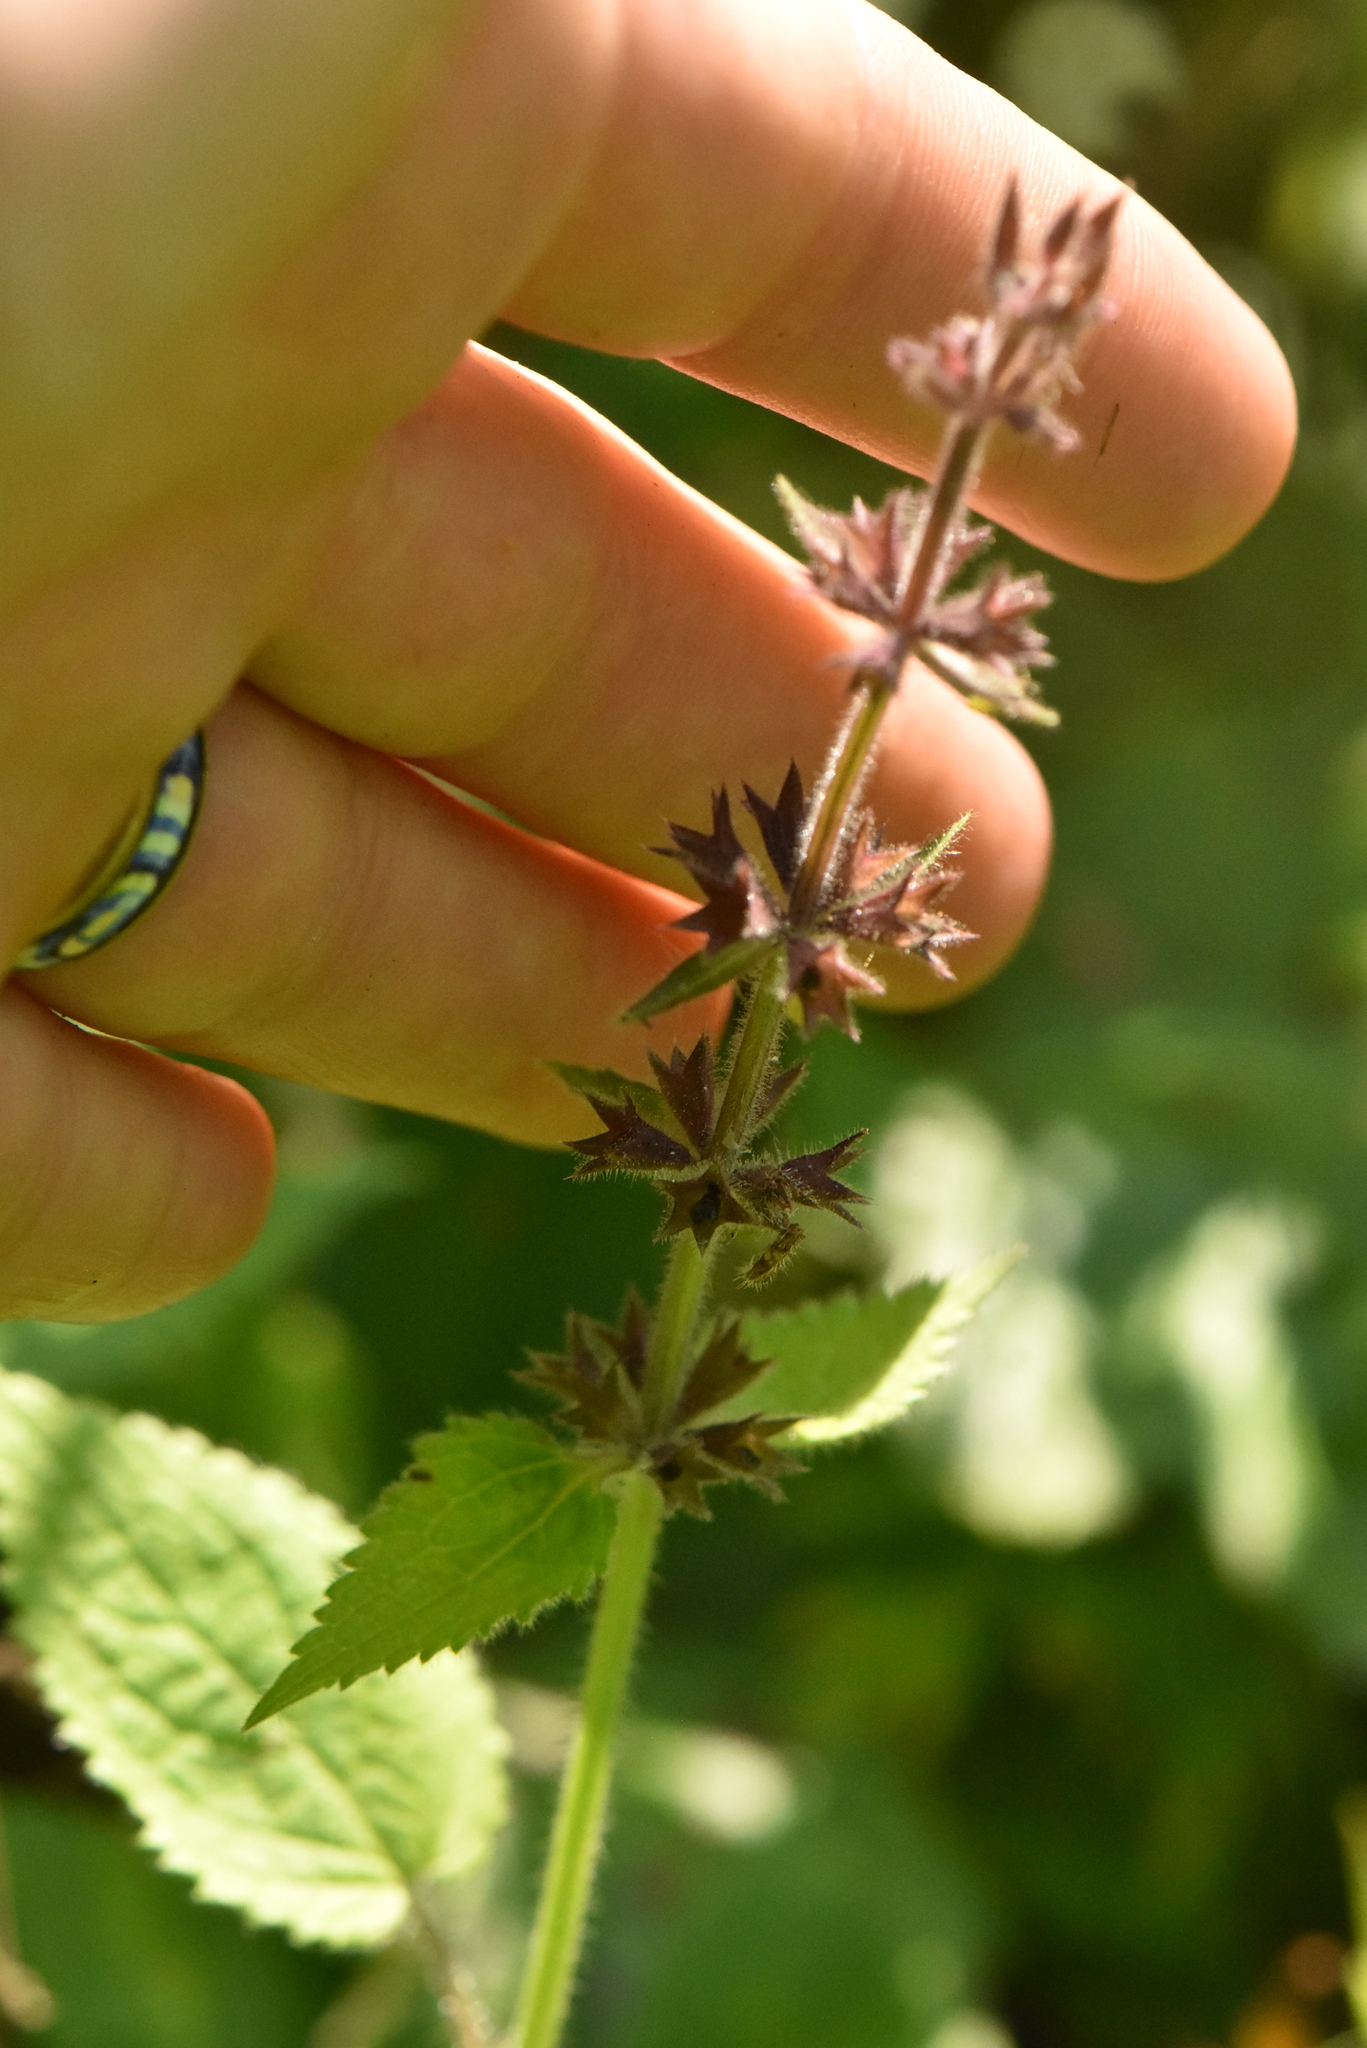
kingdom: Plantae
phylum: Tracheophyta
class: Magnoliopsida
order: Lamiales
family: Lamiaceae
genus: Stachys
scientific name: Stachys sylvatica
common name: Hedge woundwort
